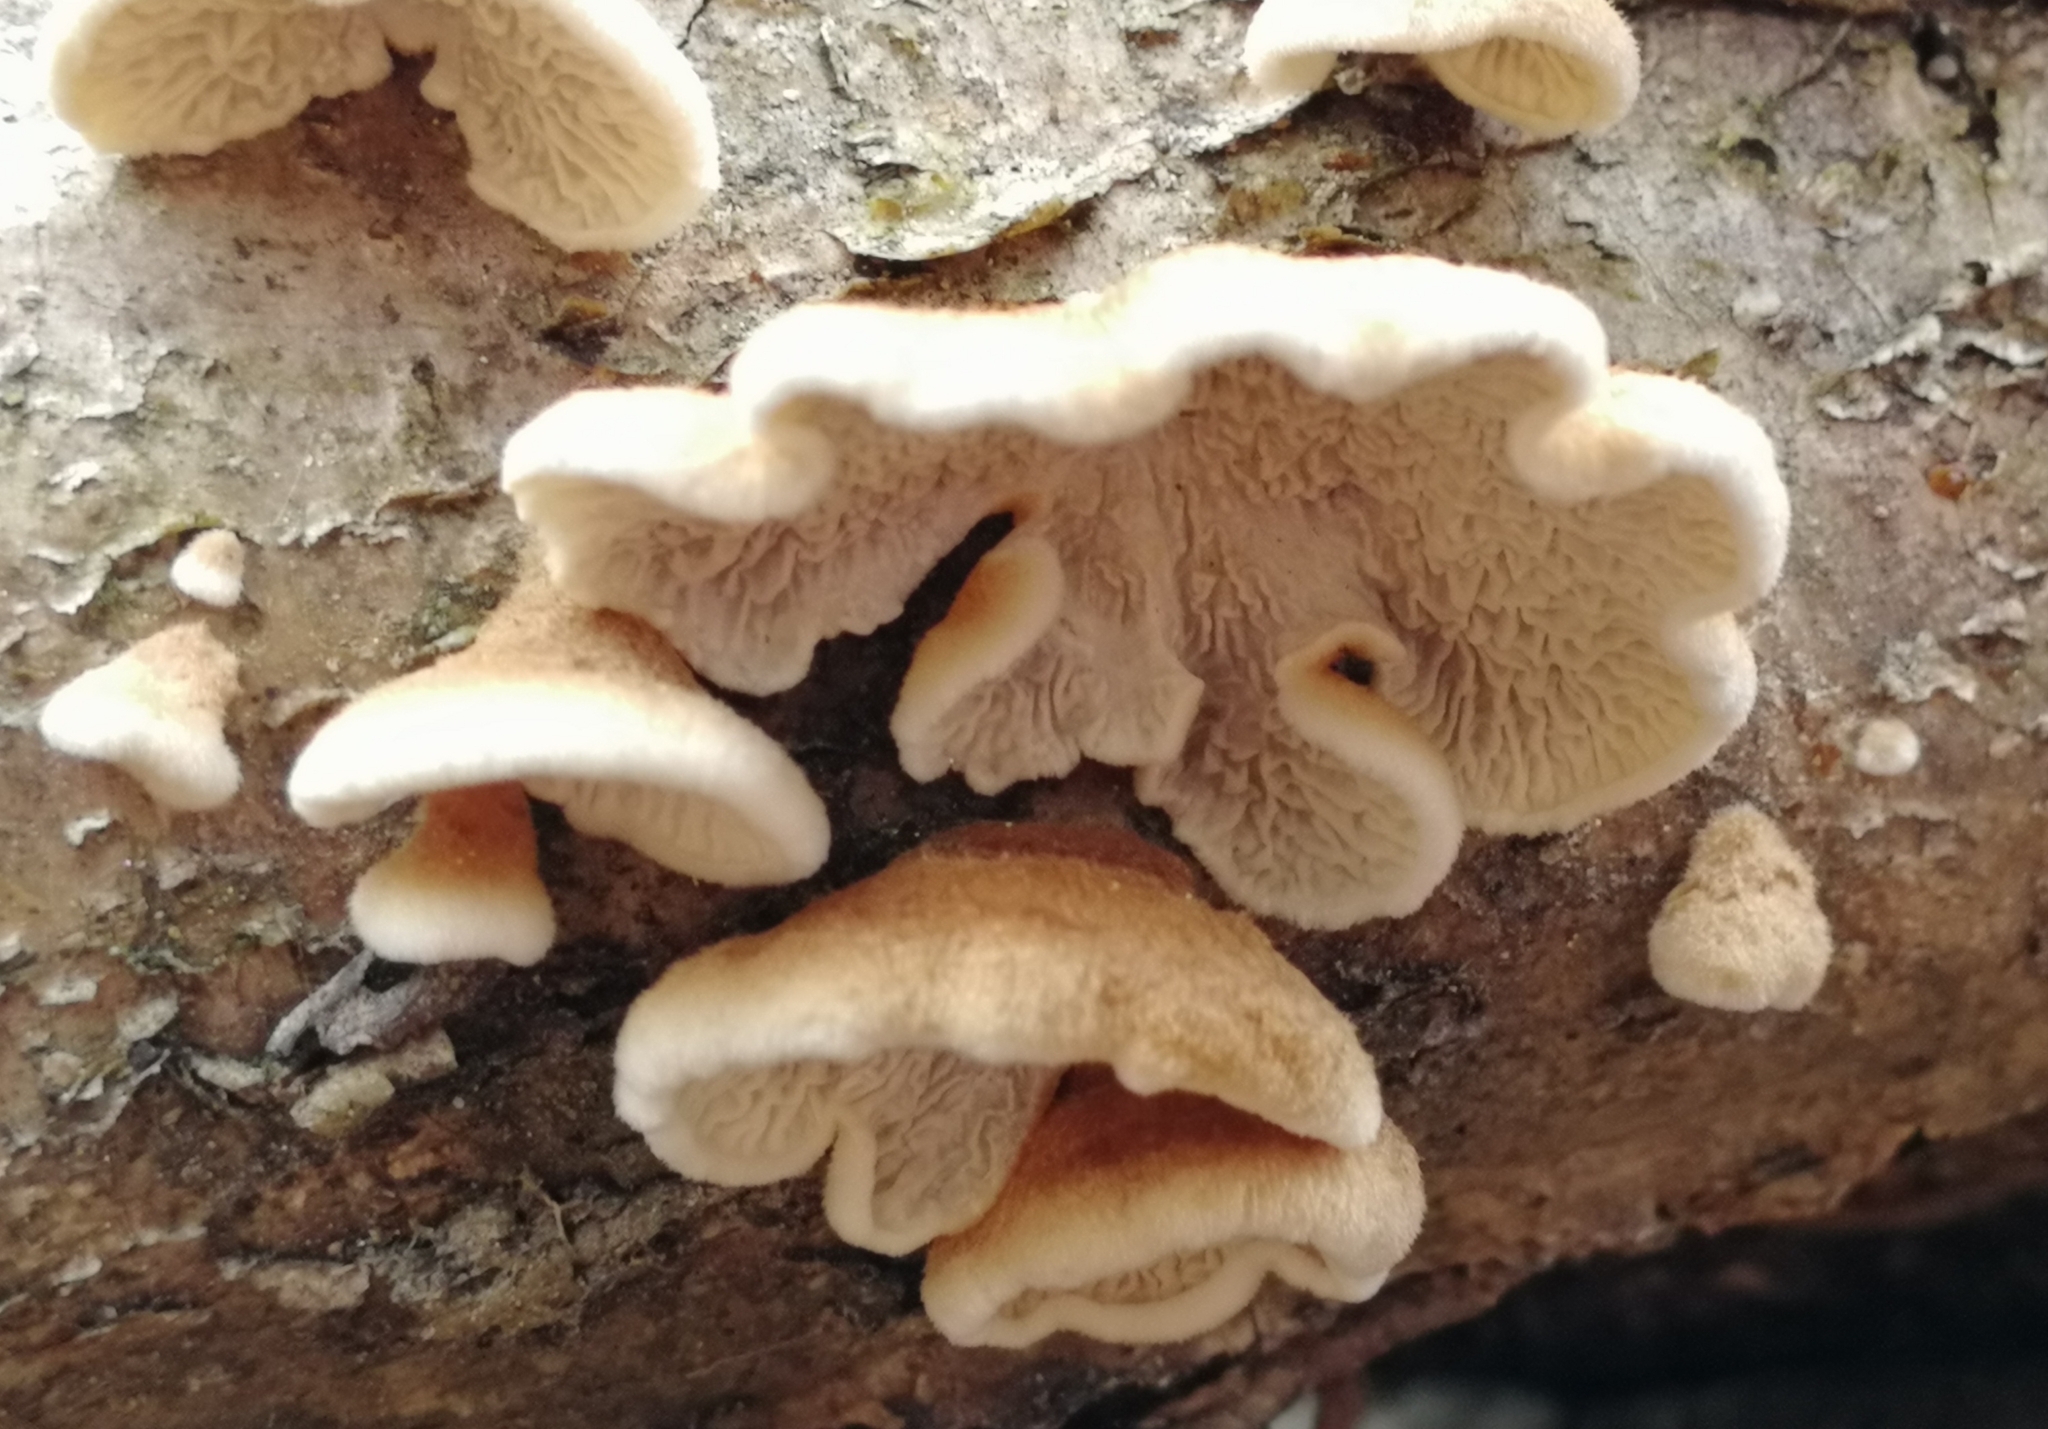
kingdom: Fungi
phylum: Basidiomycota
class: Agaricomycetes
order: Amylocorticiales
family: Amylocorticiaceae
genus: Plicaturopsis
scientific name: Plicaturopsis crispa
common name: Crimped gill
